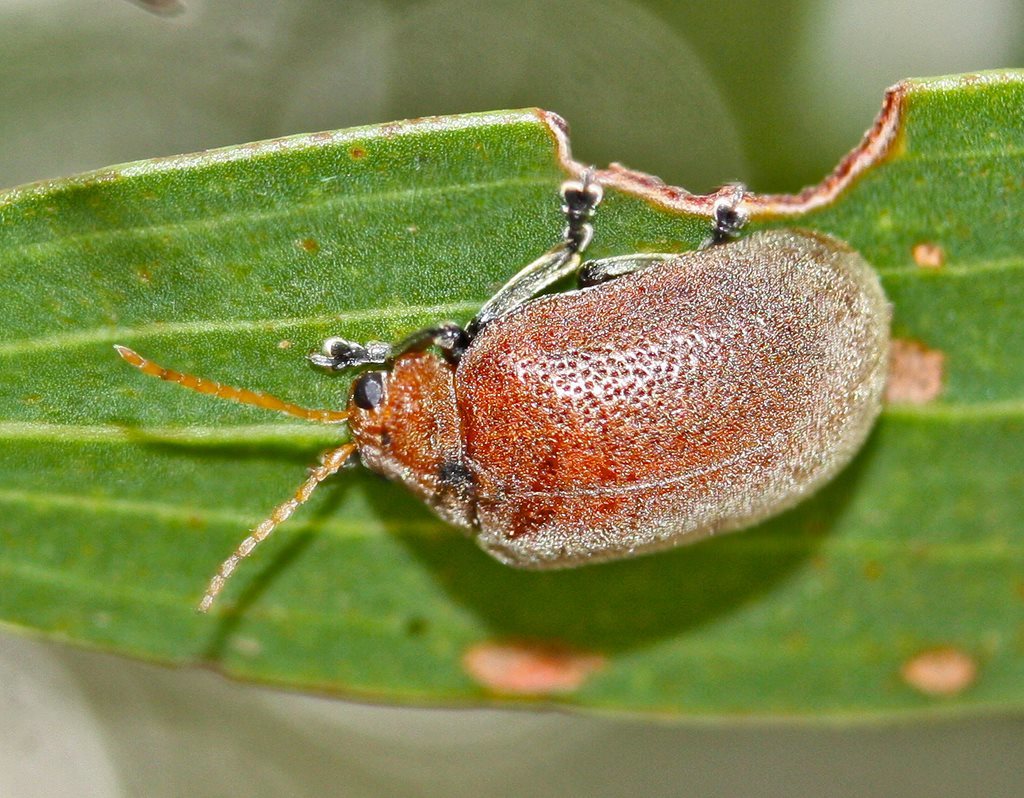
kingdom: Animalia
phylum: Arthropoda
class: Insecta
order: Coleoptera
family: Chrysomelidae
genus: Menippus
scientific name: Menippus
